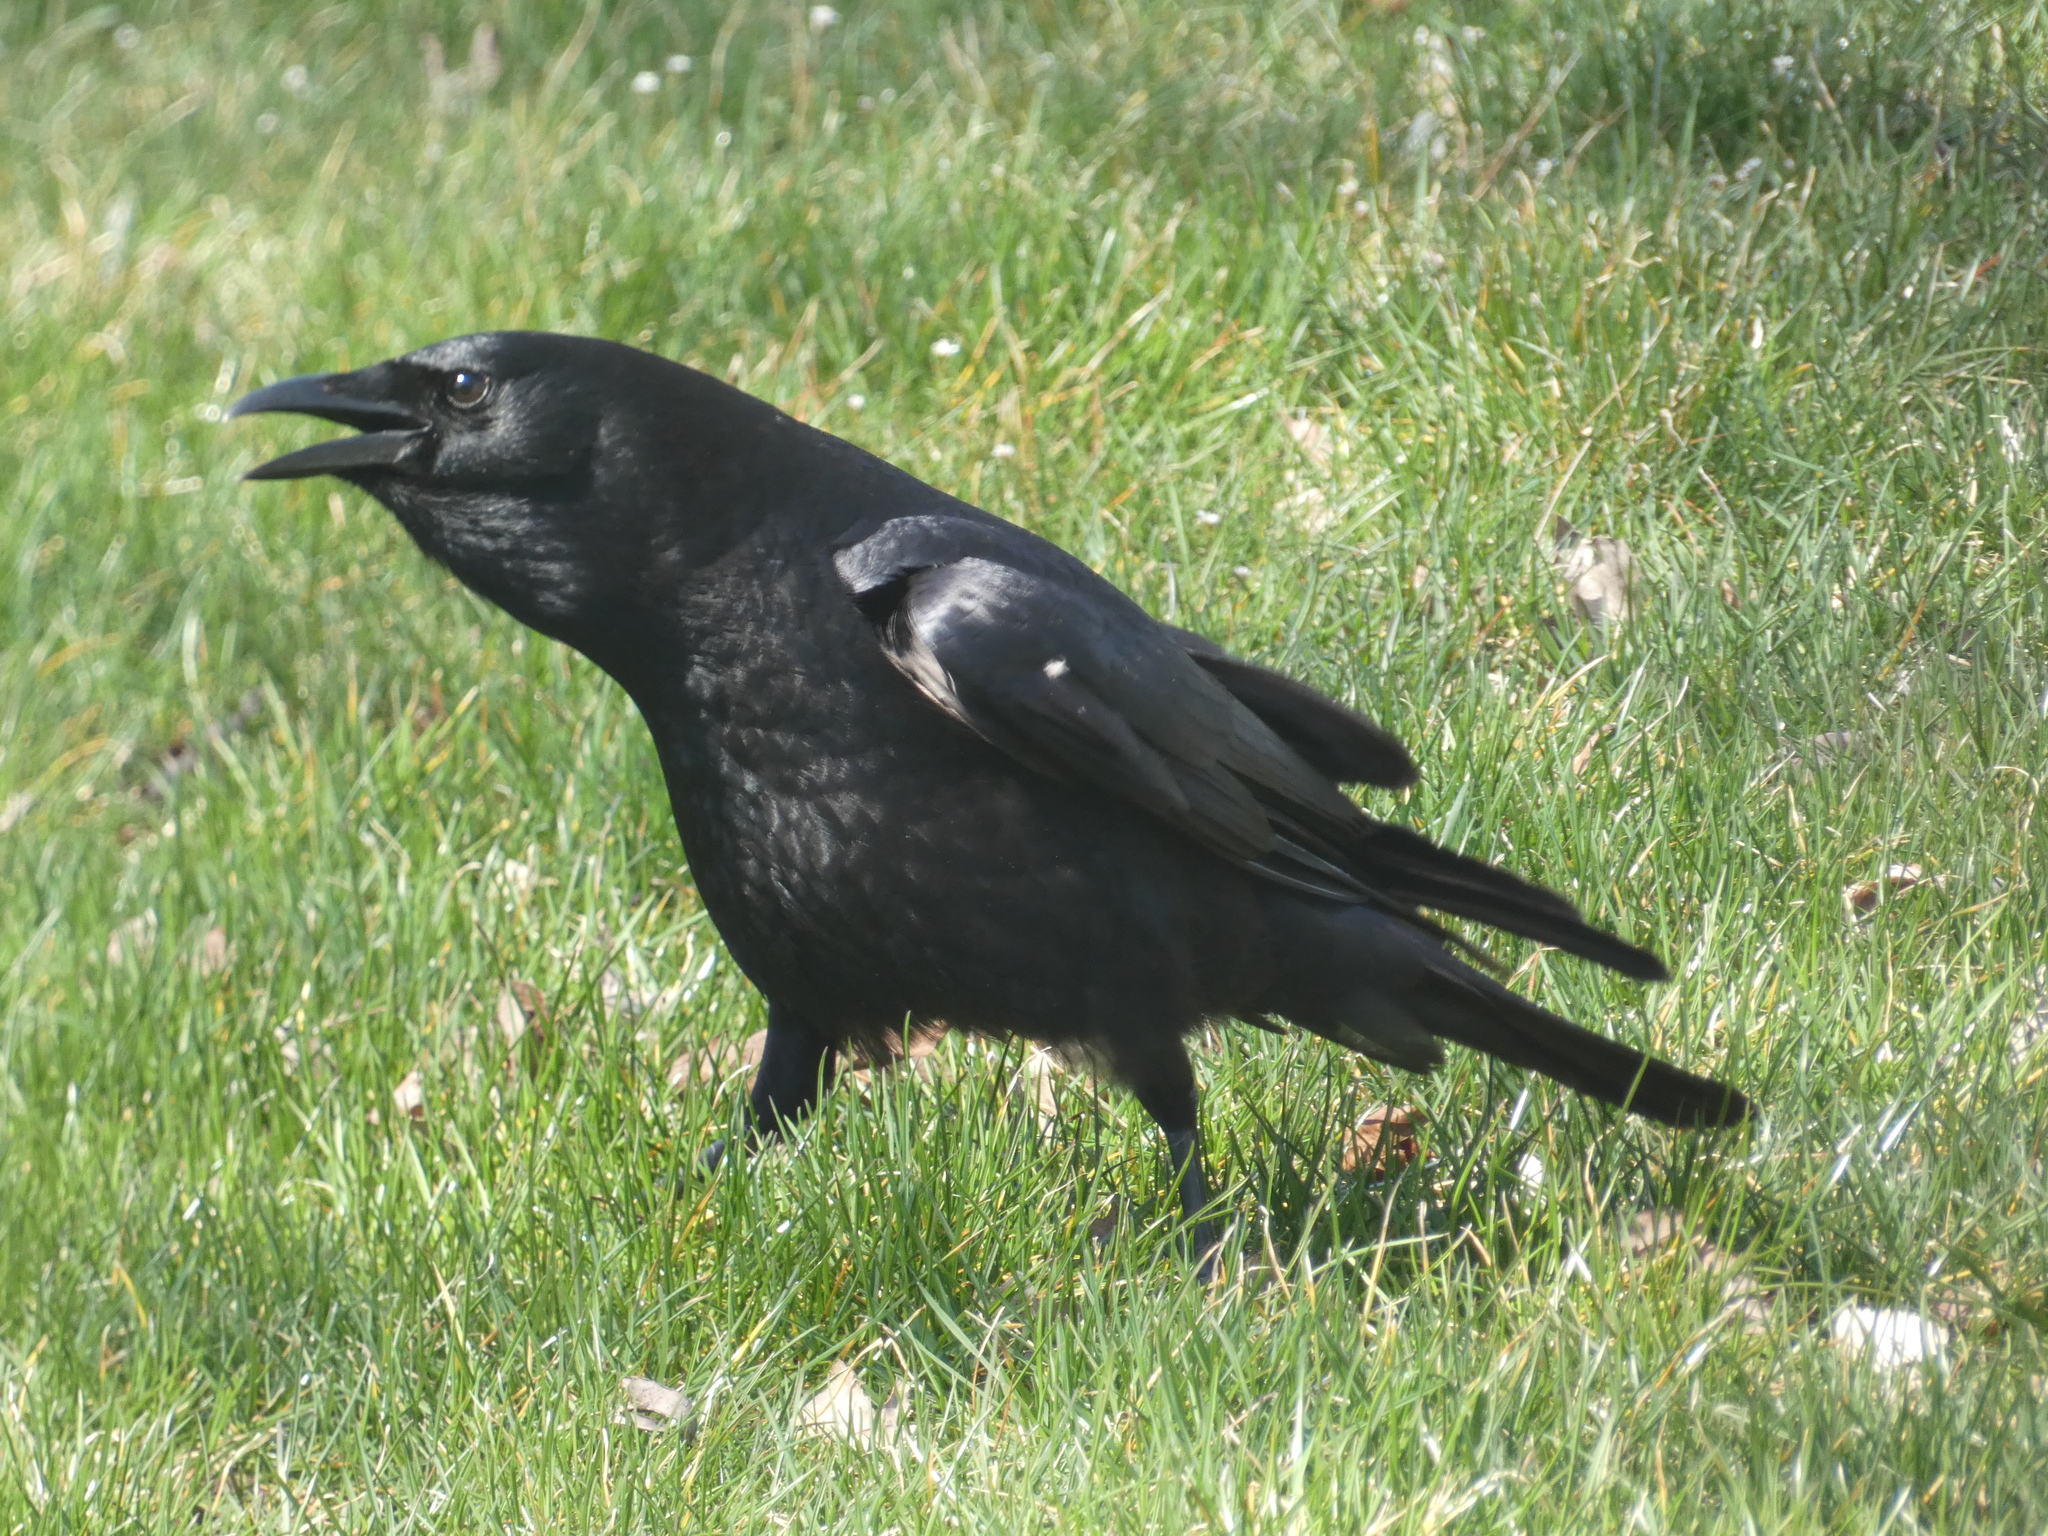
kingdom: Animalia
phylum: Chordata
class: Aves
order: Passeriformes
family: Corvidae
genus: Corvus
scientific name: Corvus brachyrhynchos
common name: American crow
